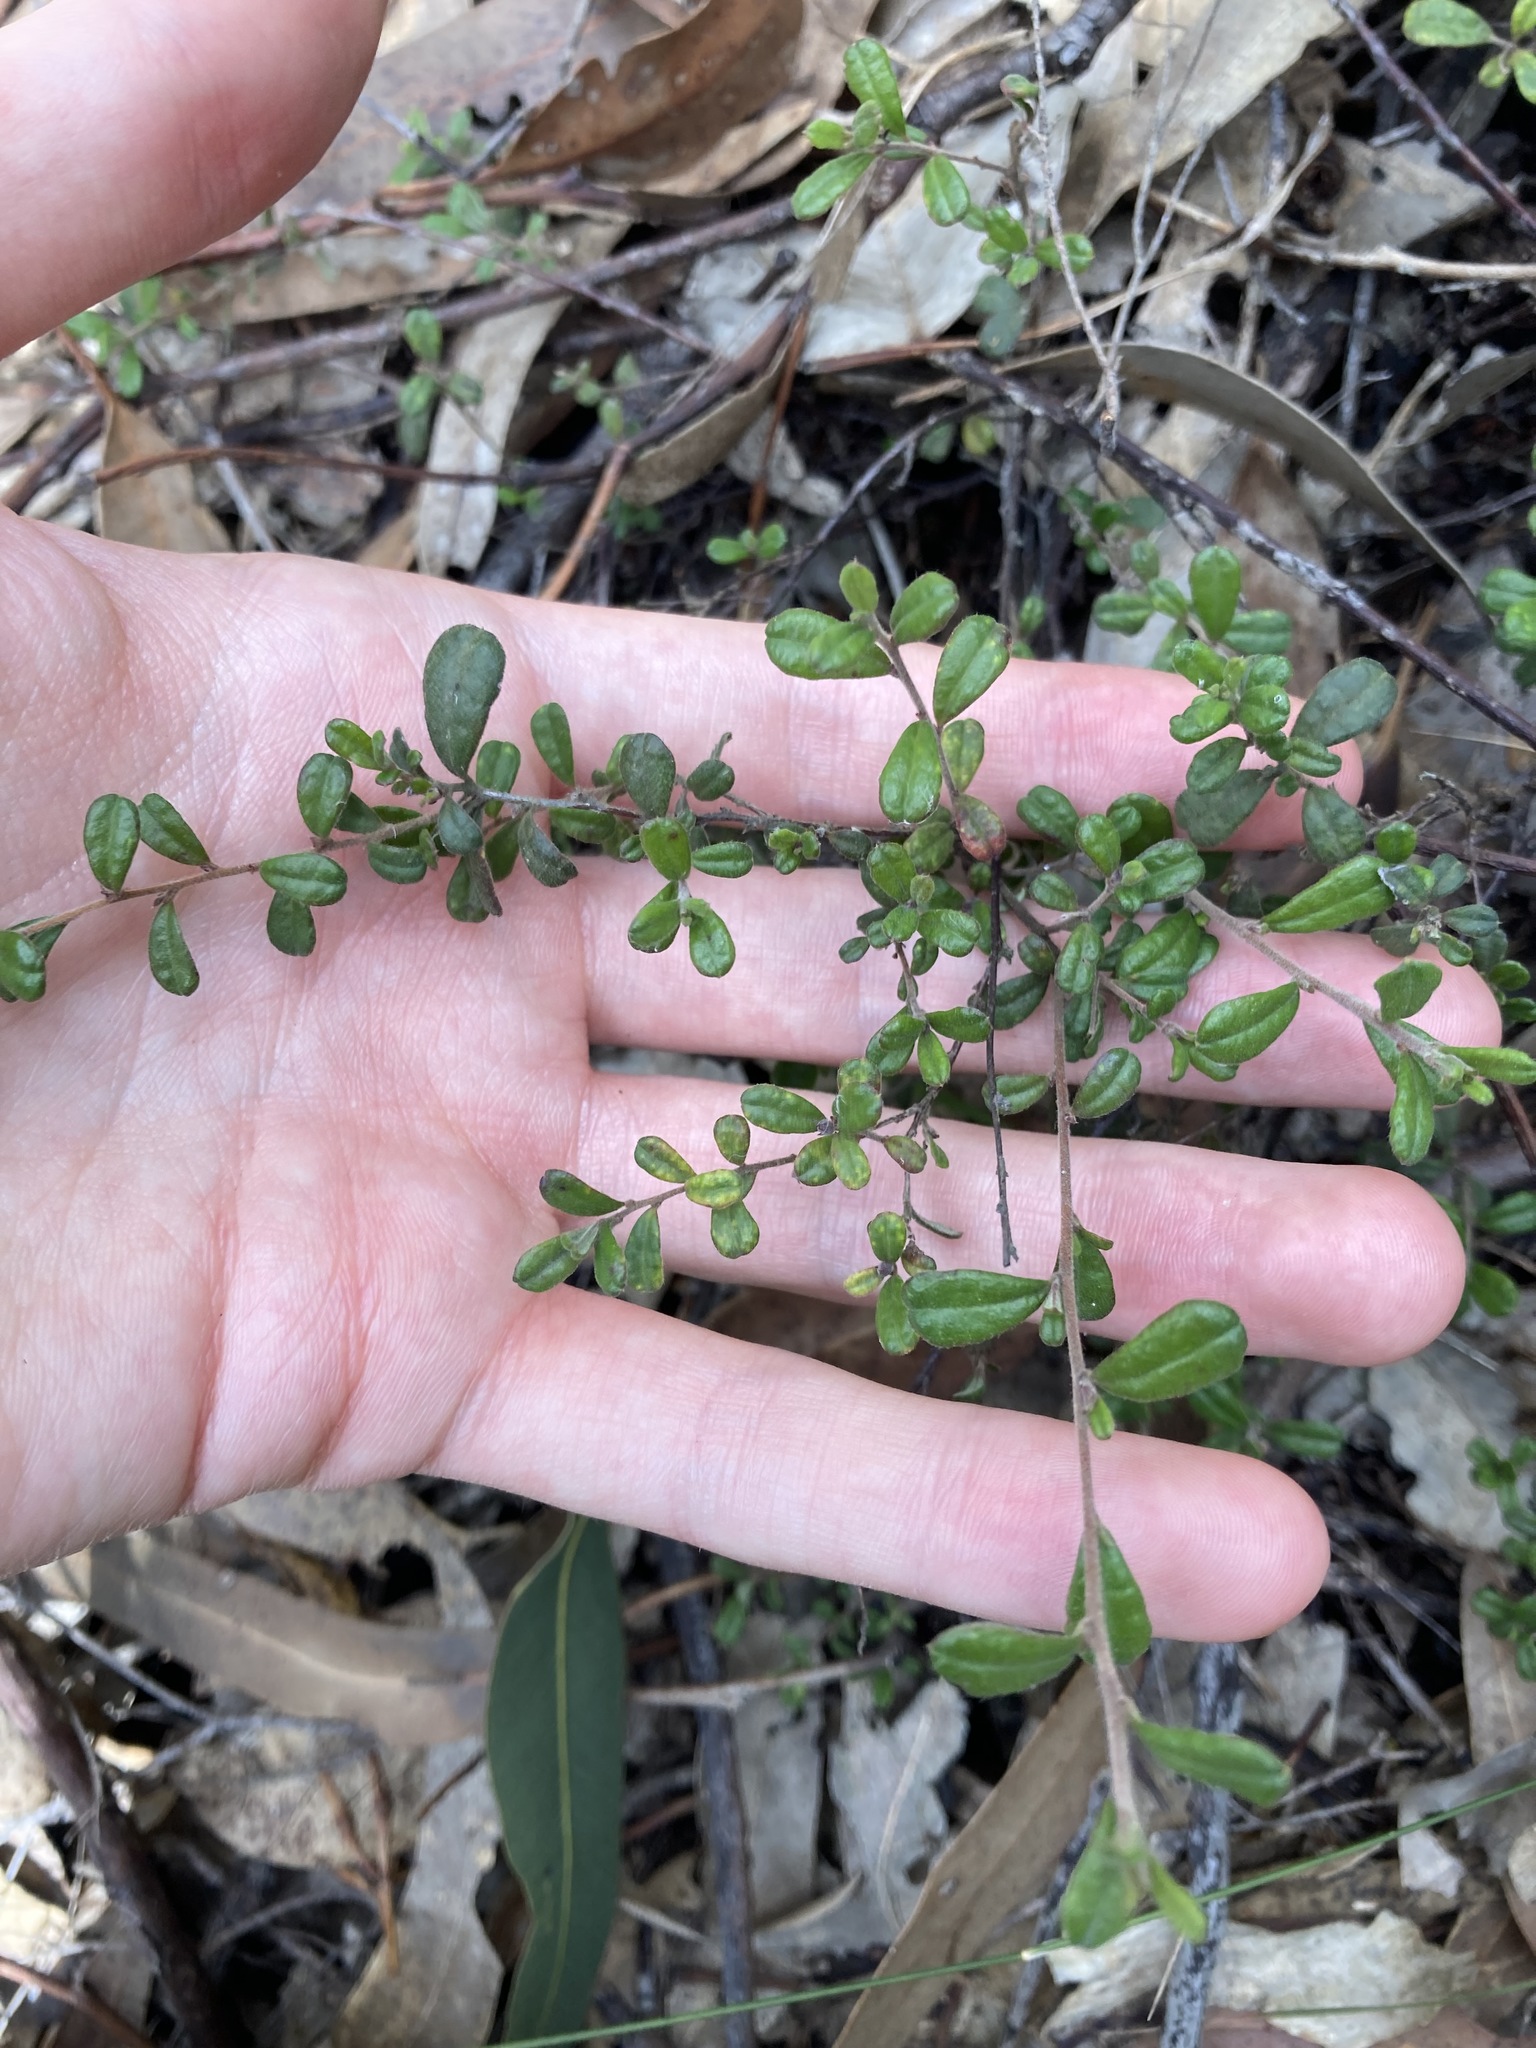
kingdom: Plantae
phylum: Tracheophyta
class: Magnoliopsida
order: Dilleniales
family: Dilleniaceae
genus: Hibbertia
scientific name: Hibbertia aspera
